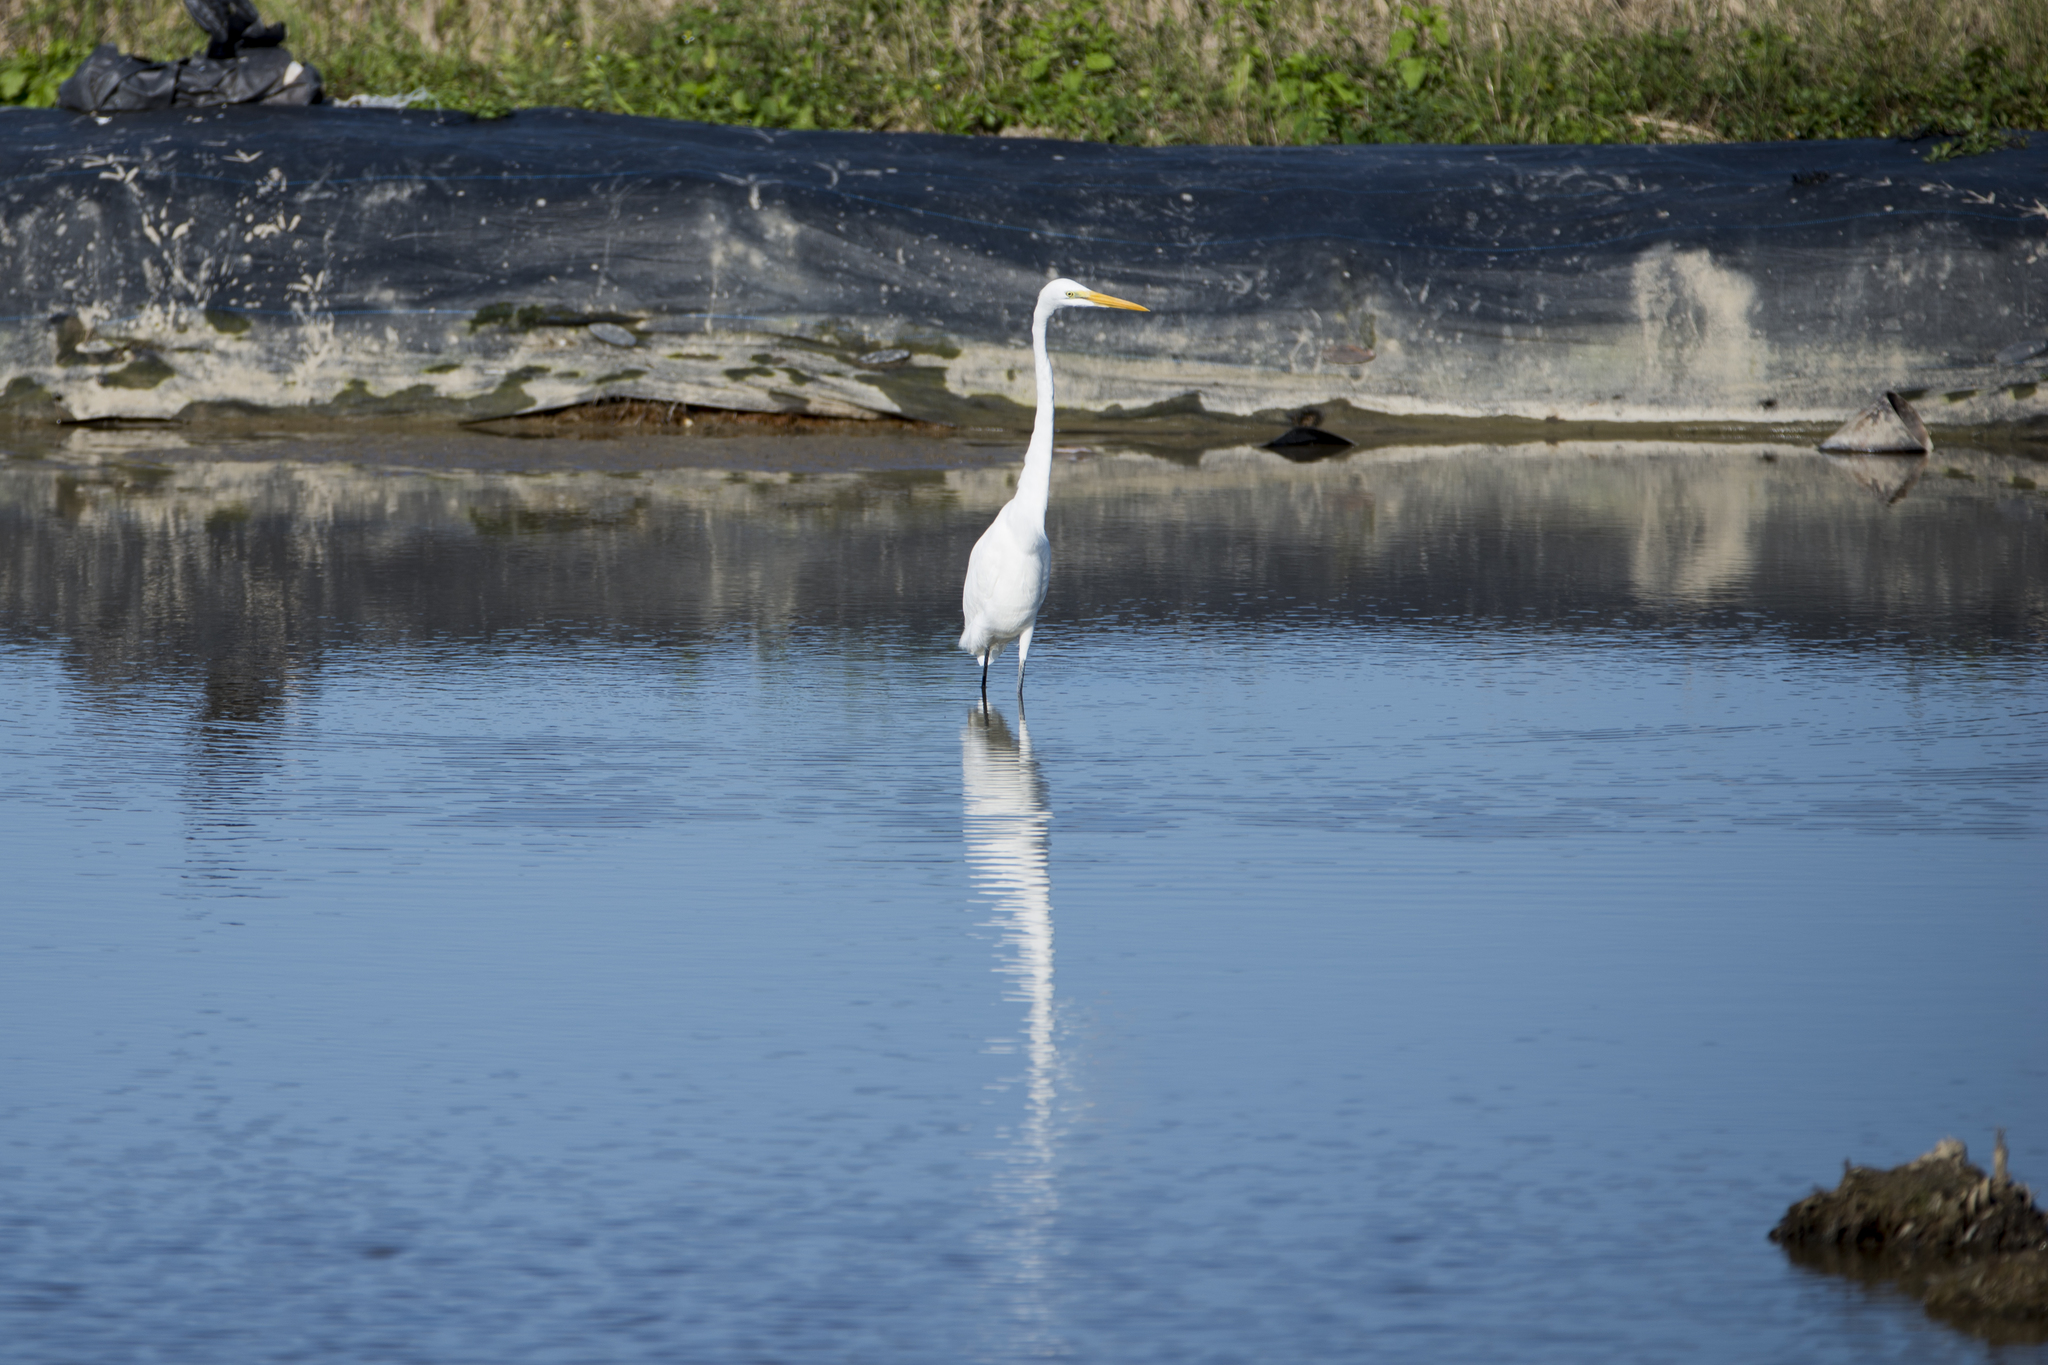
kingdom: Animalia
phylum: Chordata
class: Aves
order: Pelecaniformes
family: Ardeidae
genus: Ardea
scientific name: Ardea modesta
